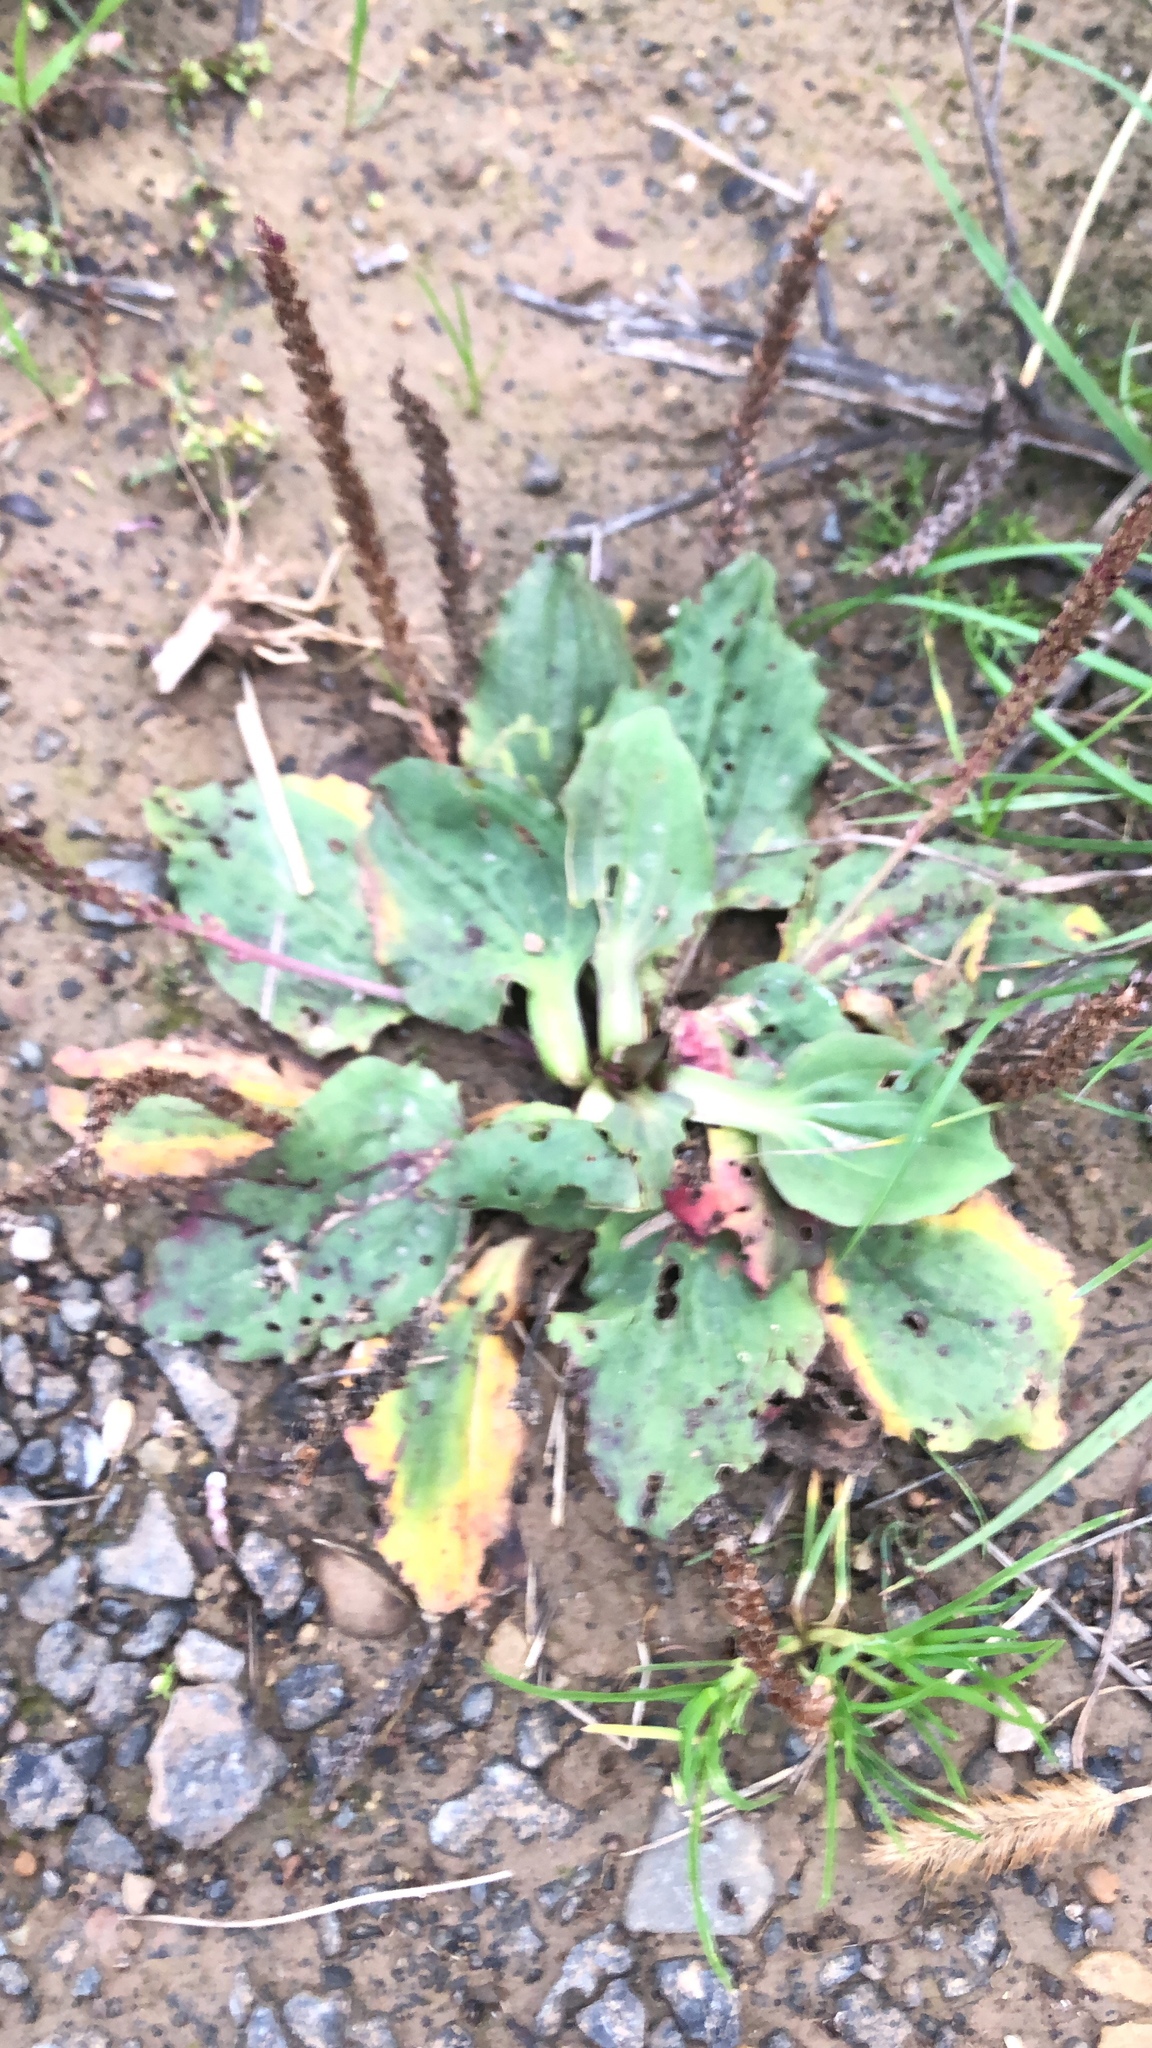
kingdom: Plantae
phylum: Tracheophyta
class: Magnoliopsida
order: Lamiales
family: Plantaginaceae
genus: Plantago
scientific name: Plantago major
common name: Common plantain
